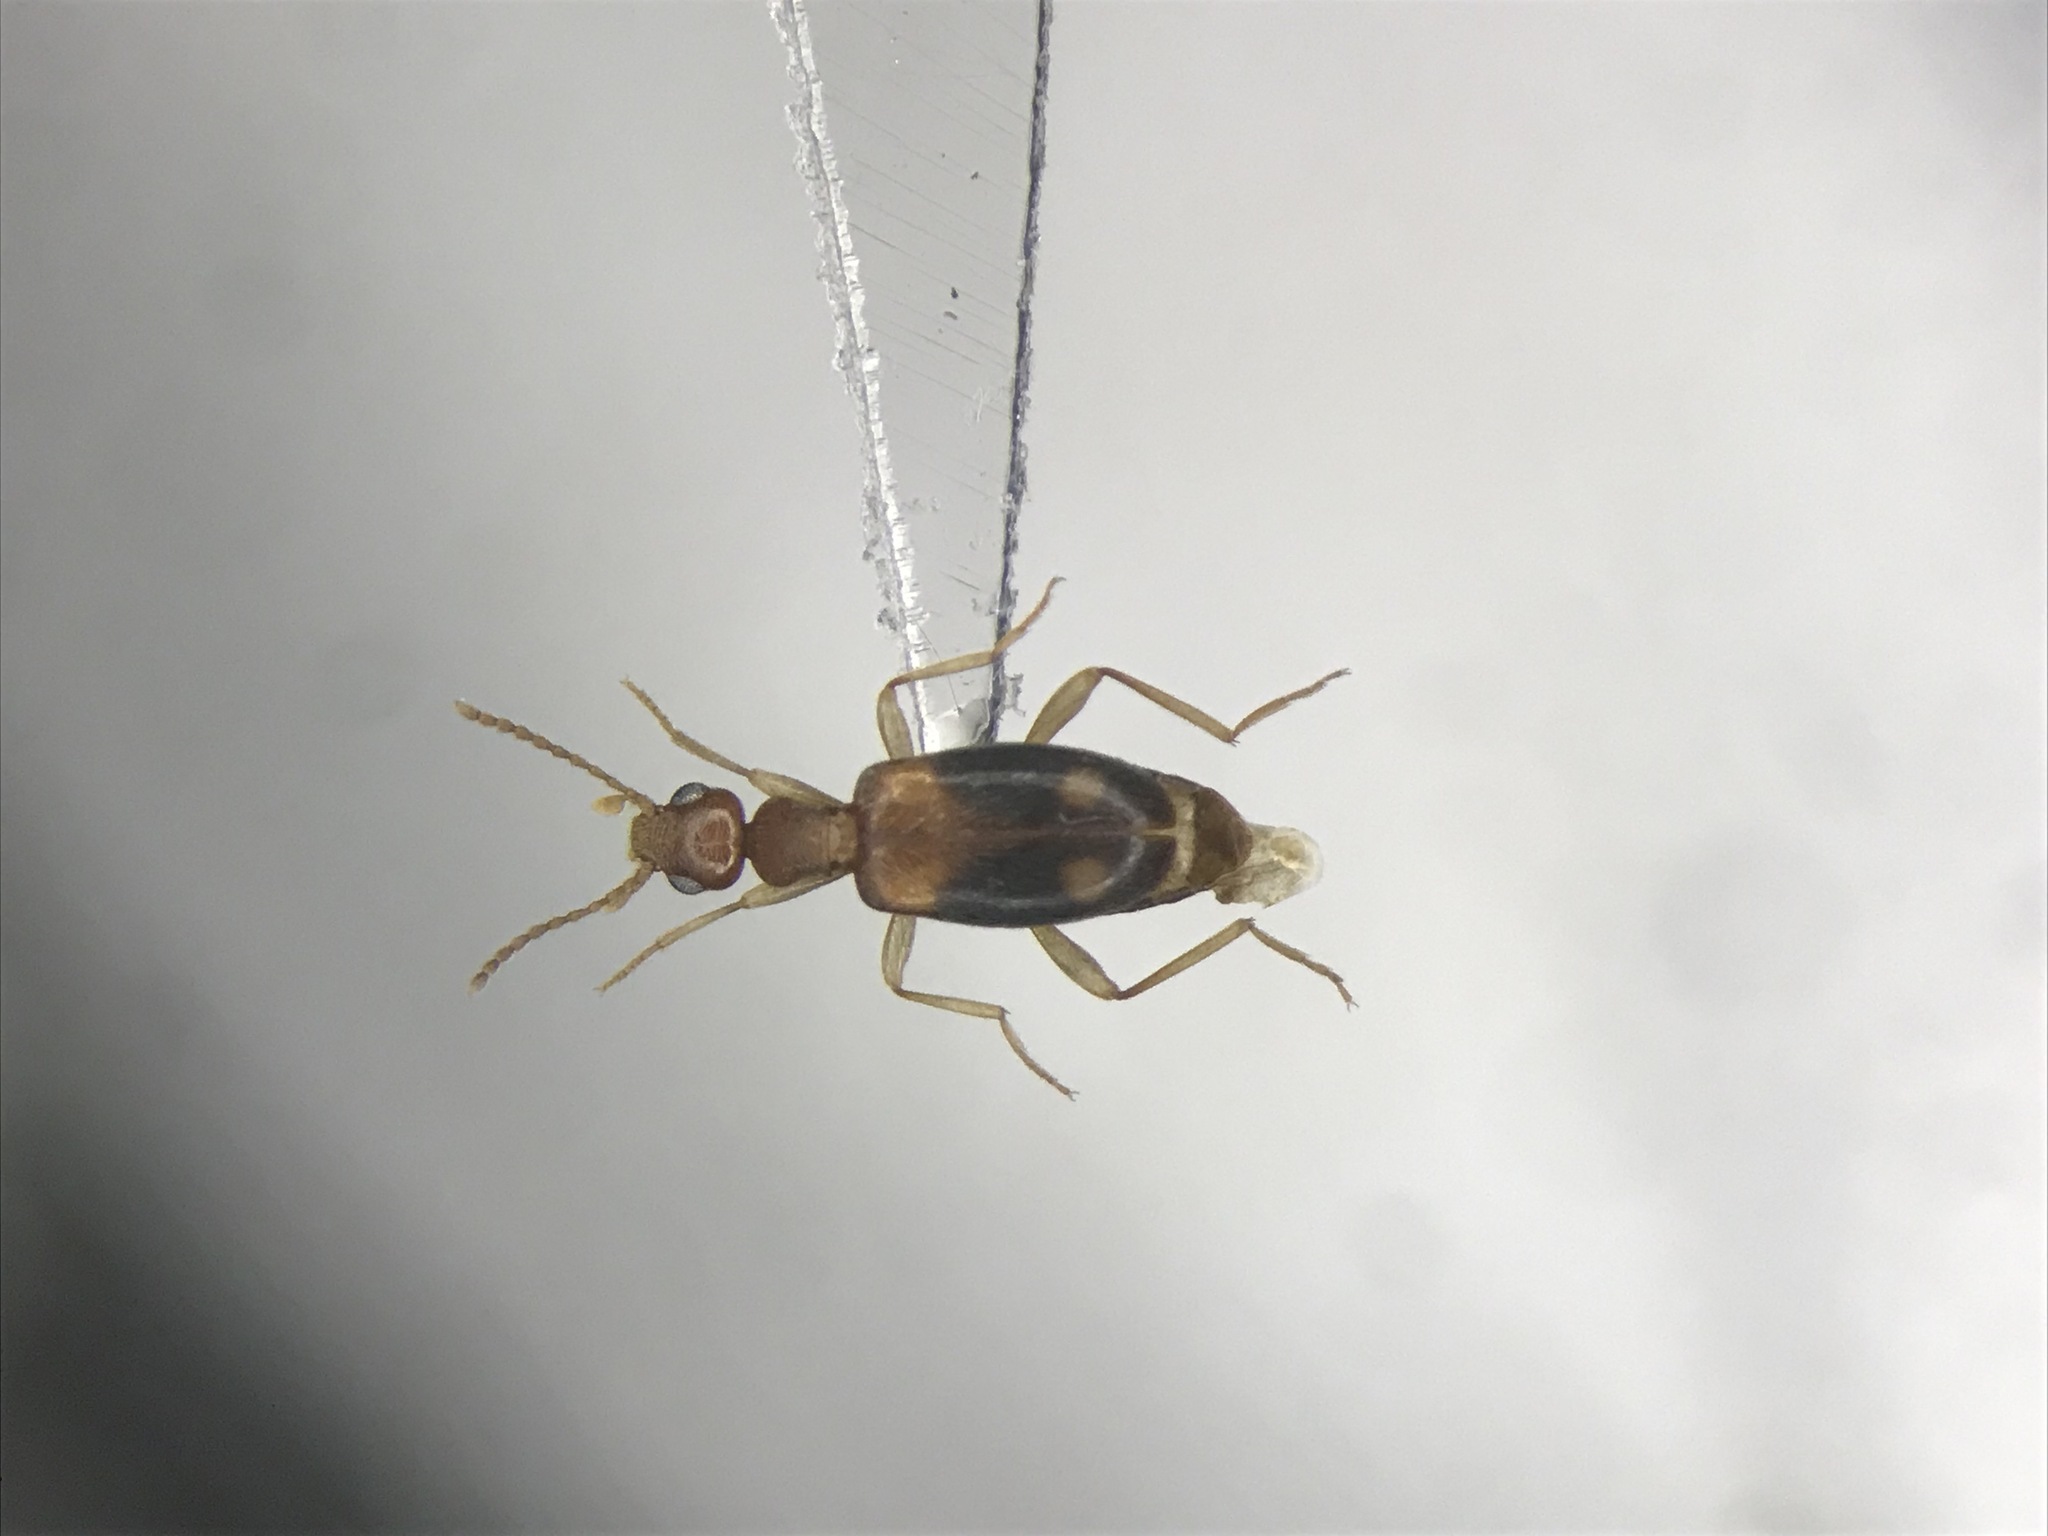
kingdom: Animalia
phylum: Arthropoda
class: Insecta
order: Coleoptera
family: Anthicidae
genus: Stricticollis
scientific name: Stricticollis tobias
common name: Two-dotted ant-like flower beetle
